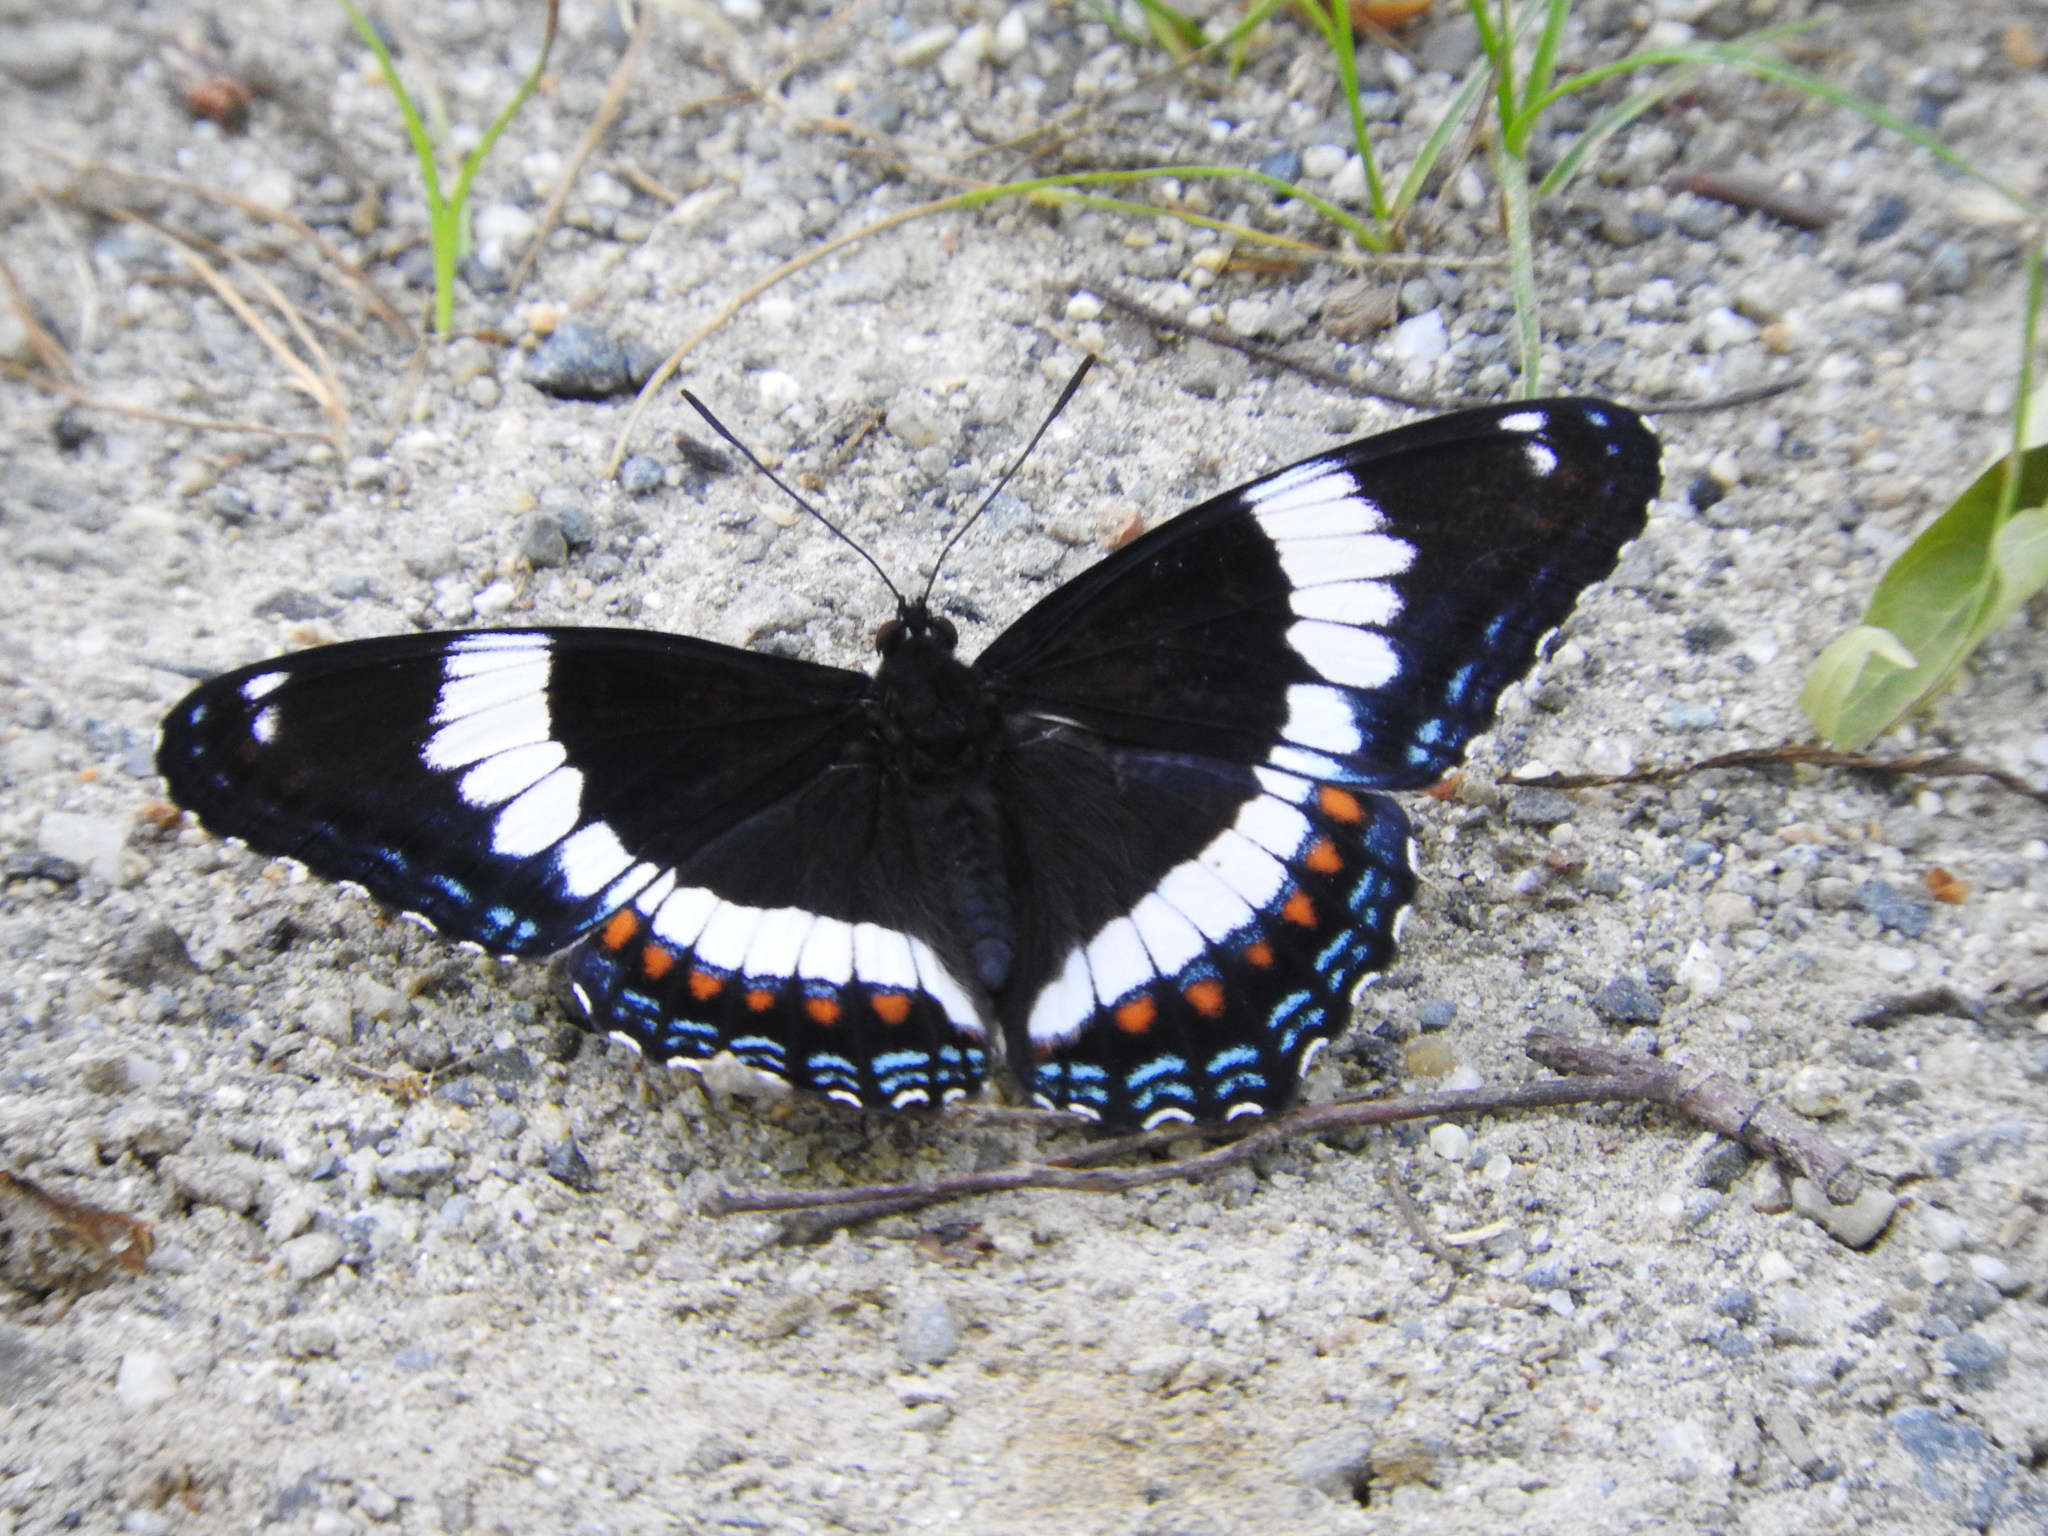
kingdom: Animalia
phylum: Arthropoda
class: Insecta
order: Lepidoptera
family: Nymphalidae
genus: Limenitis
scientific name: Limenitis arthemis
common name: Red-spotted admiral
